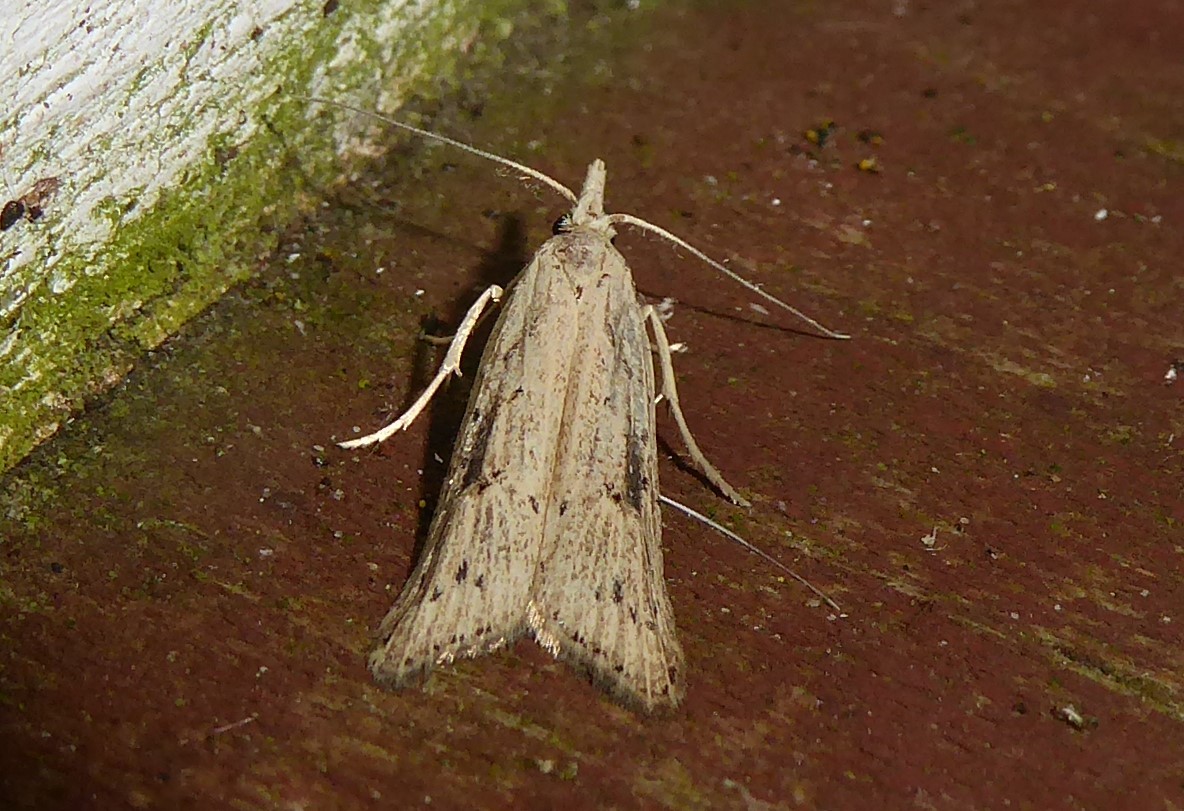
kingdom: Animalia
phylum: Arthropoda
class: Insecta
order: Lepidoptera
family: Carposinidae
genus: Carposina
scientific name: Carposina Heterocrossa exochana
